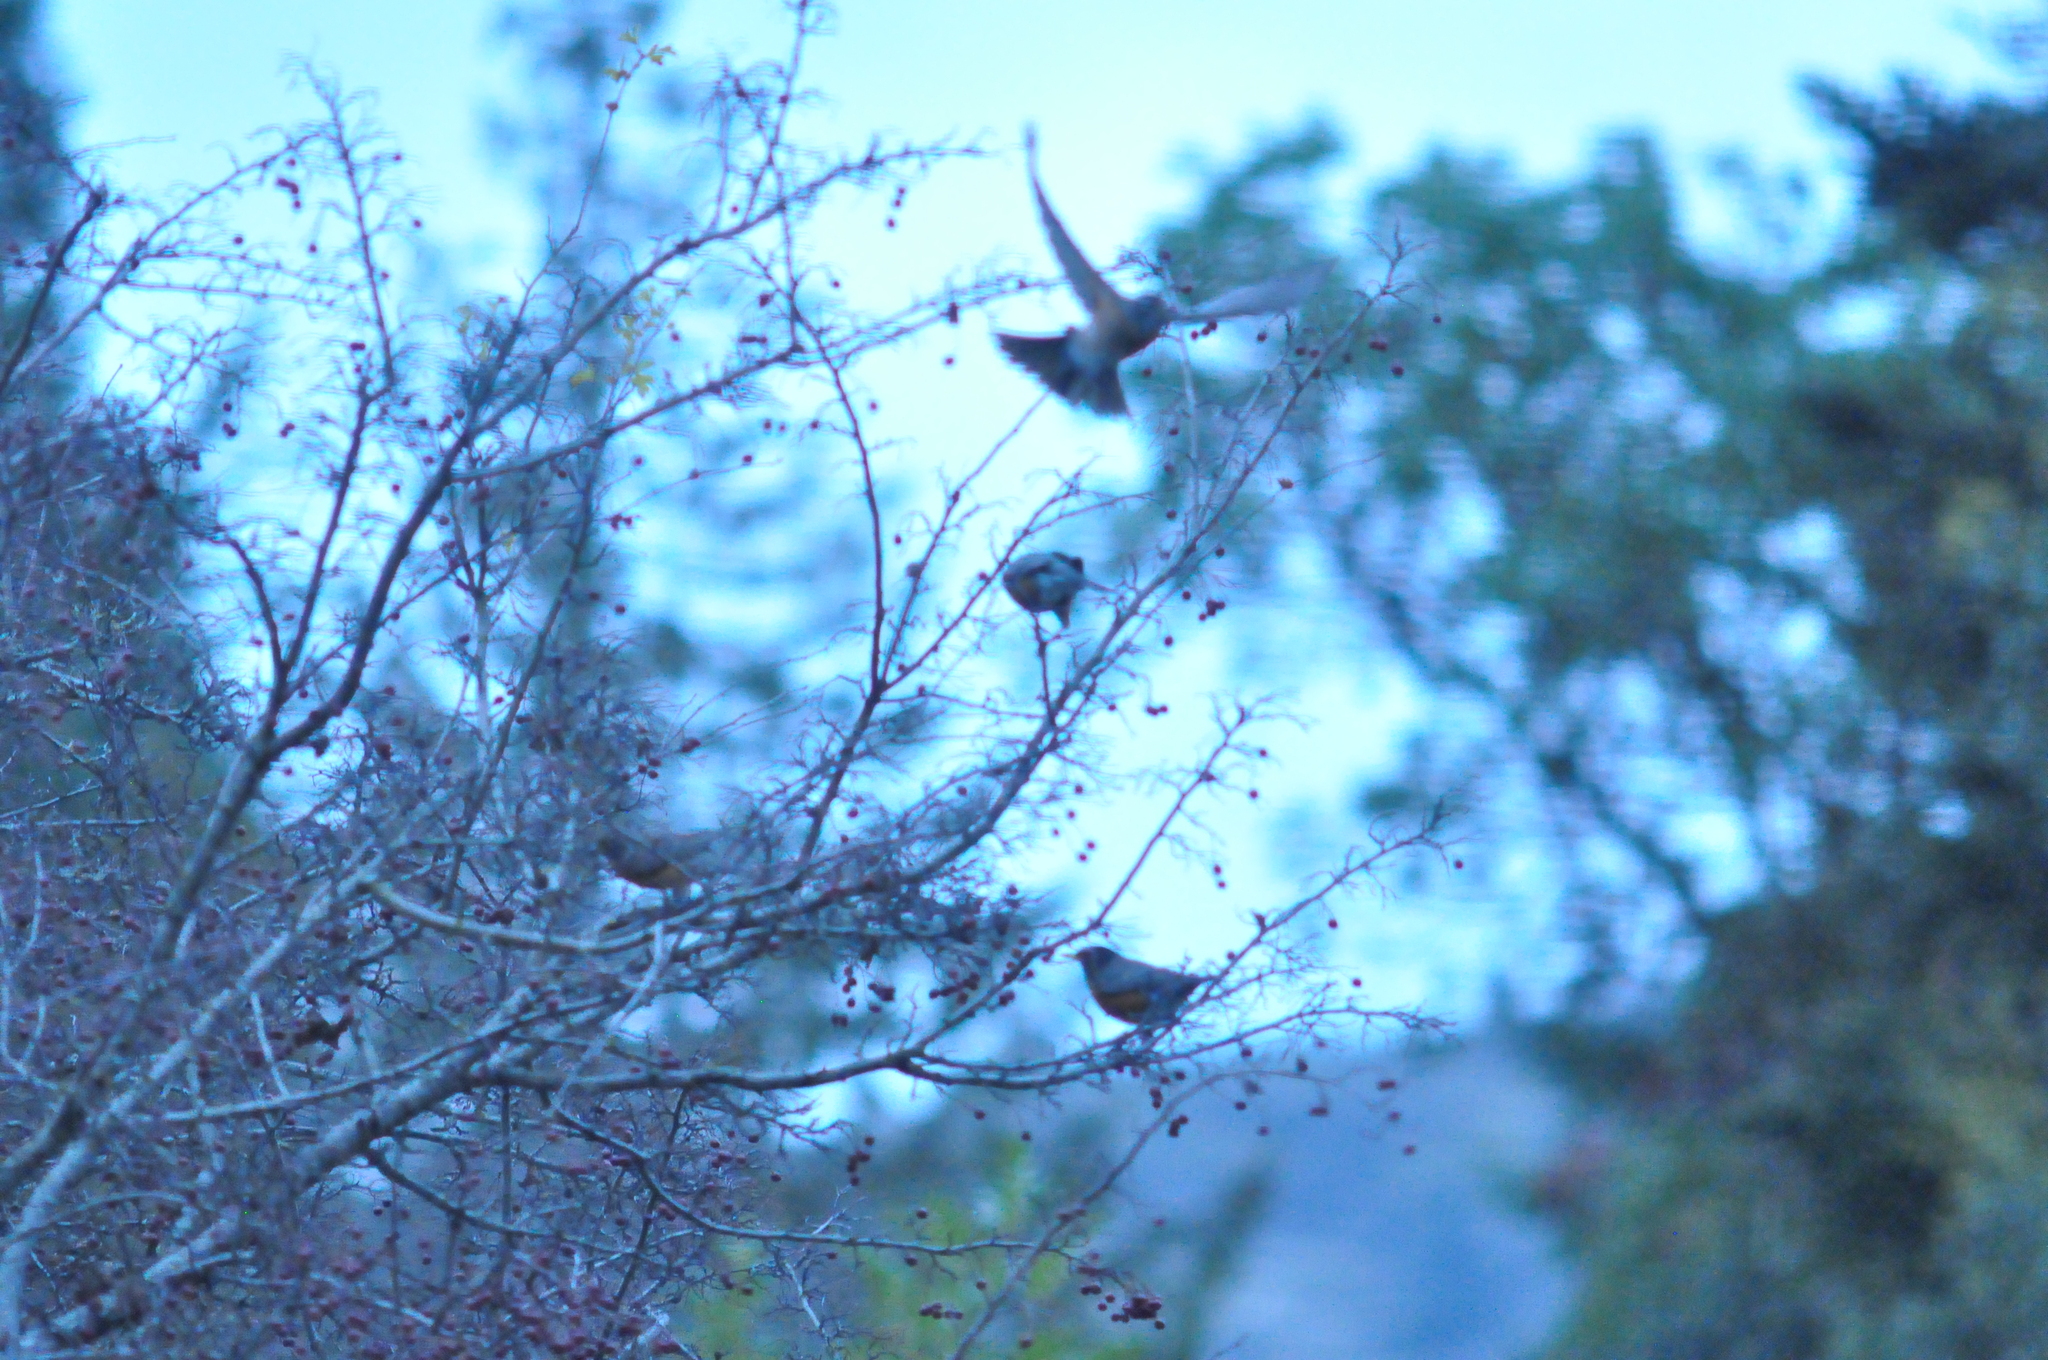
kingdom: Animalia
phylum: Chordata
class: Aves
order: Passeriformes
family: Turdidae
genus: Turdus
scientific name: Turdus migratorius
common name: American robin
